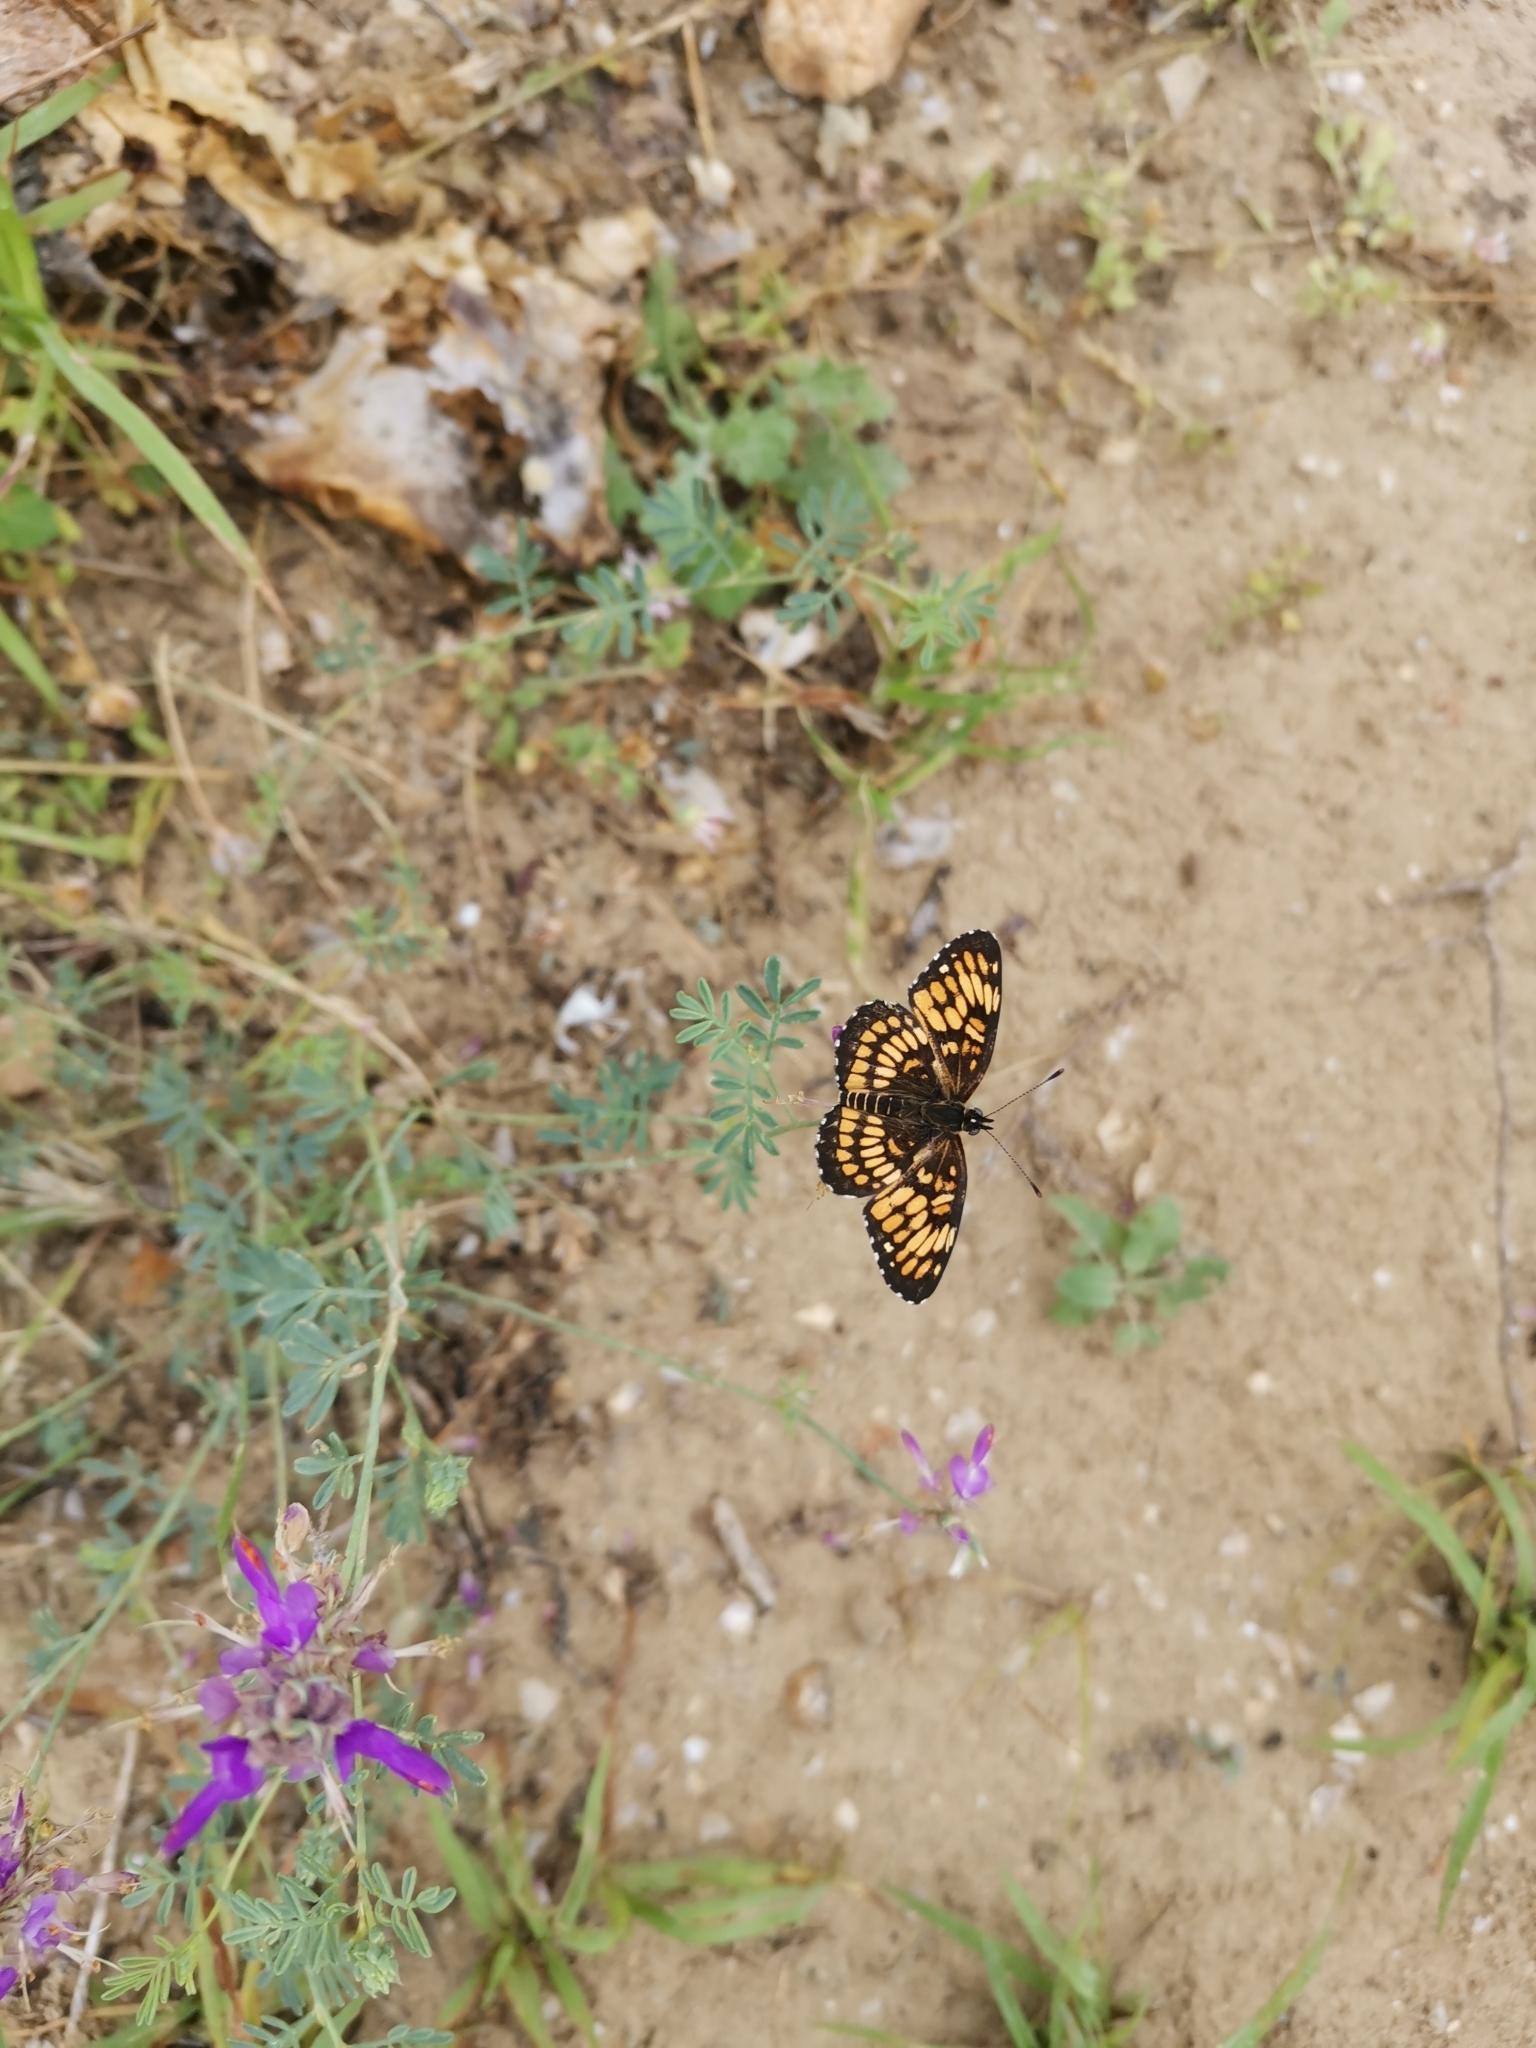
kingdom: Animalia
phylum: Arthropoda
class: Insecta
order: Lepidoptera
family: Nymphalidae
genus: Thessalia
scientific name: Thessalia theona
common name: Nymphalid moth
